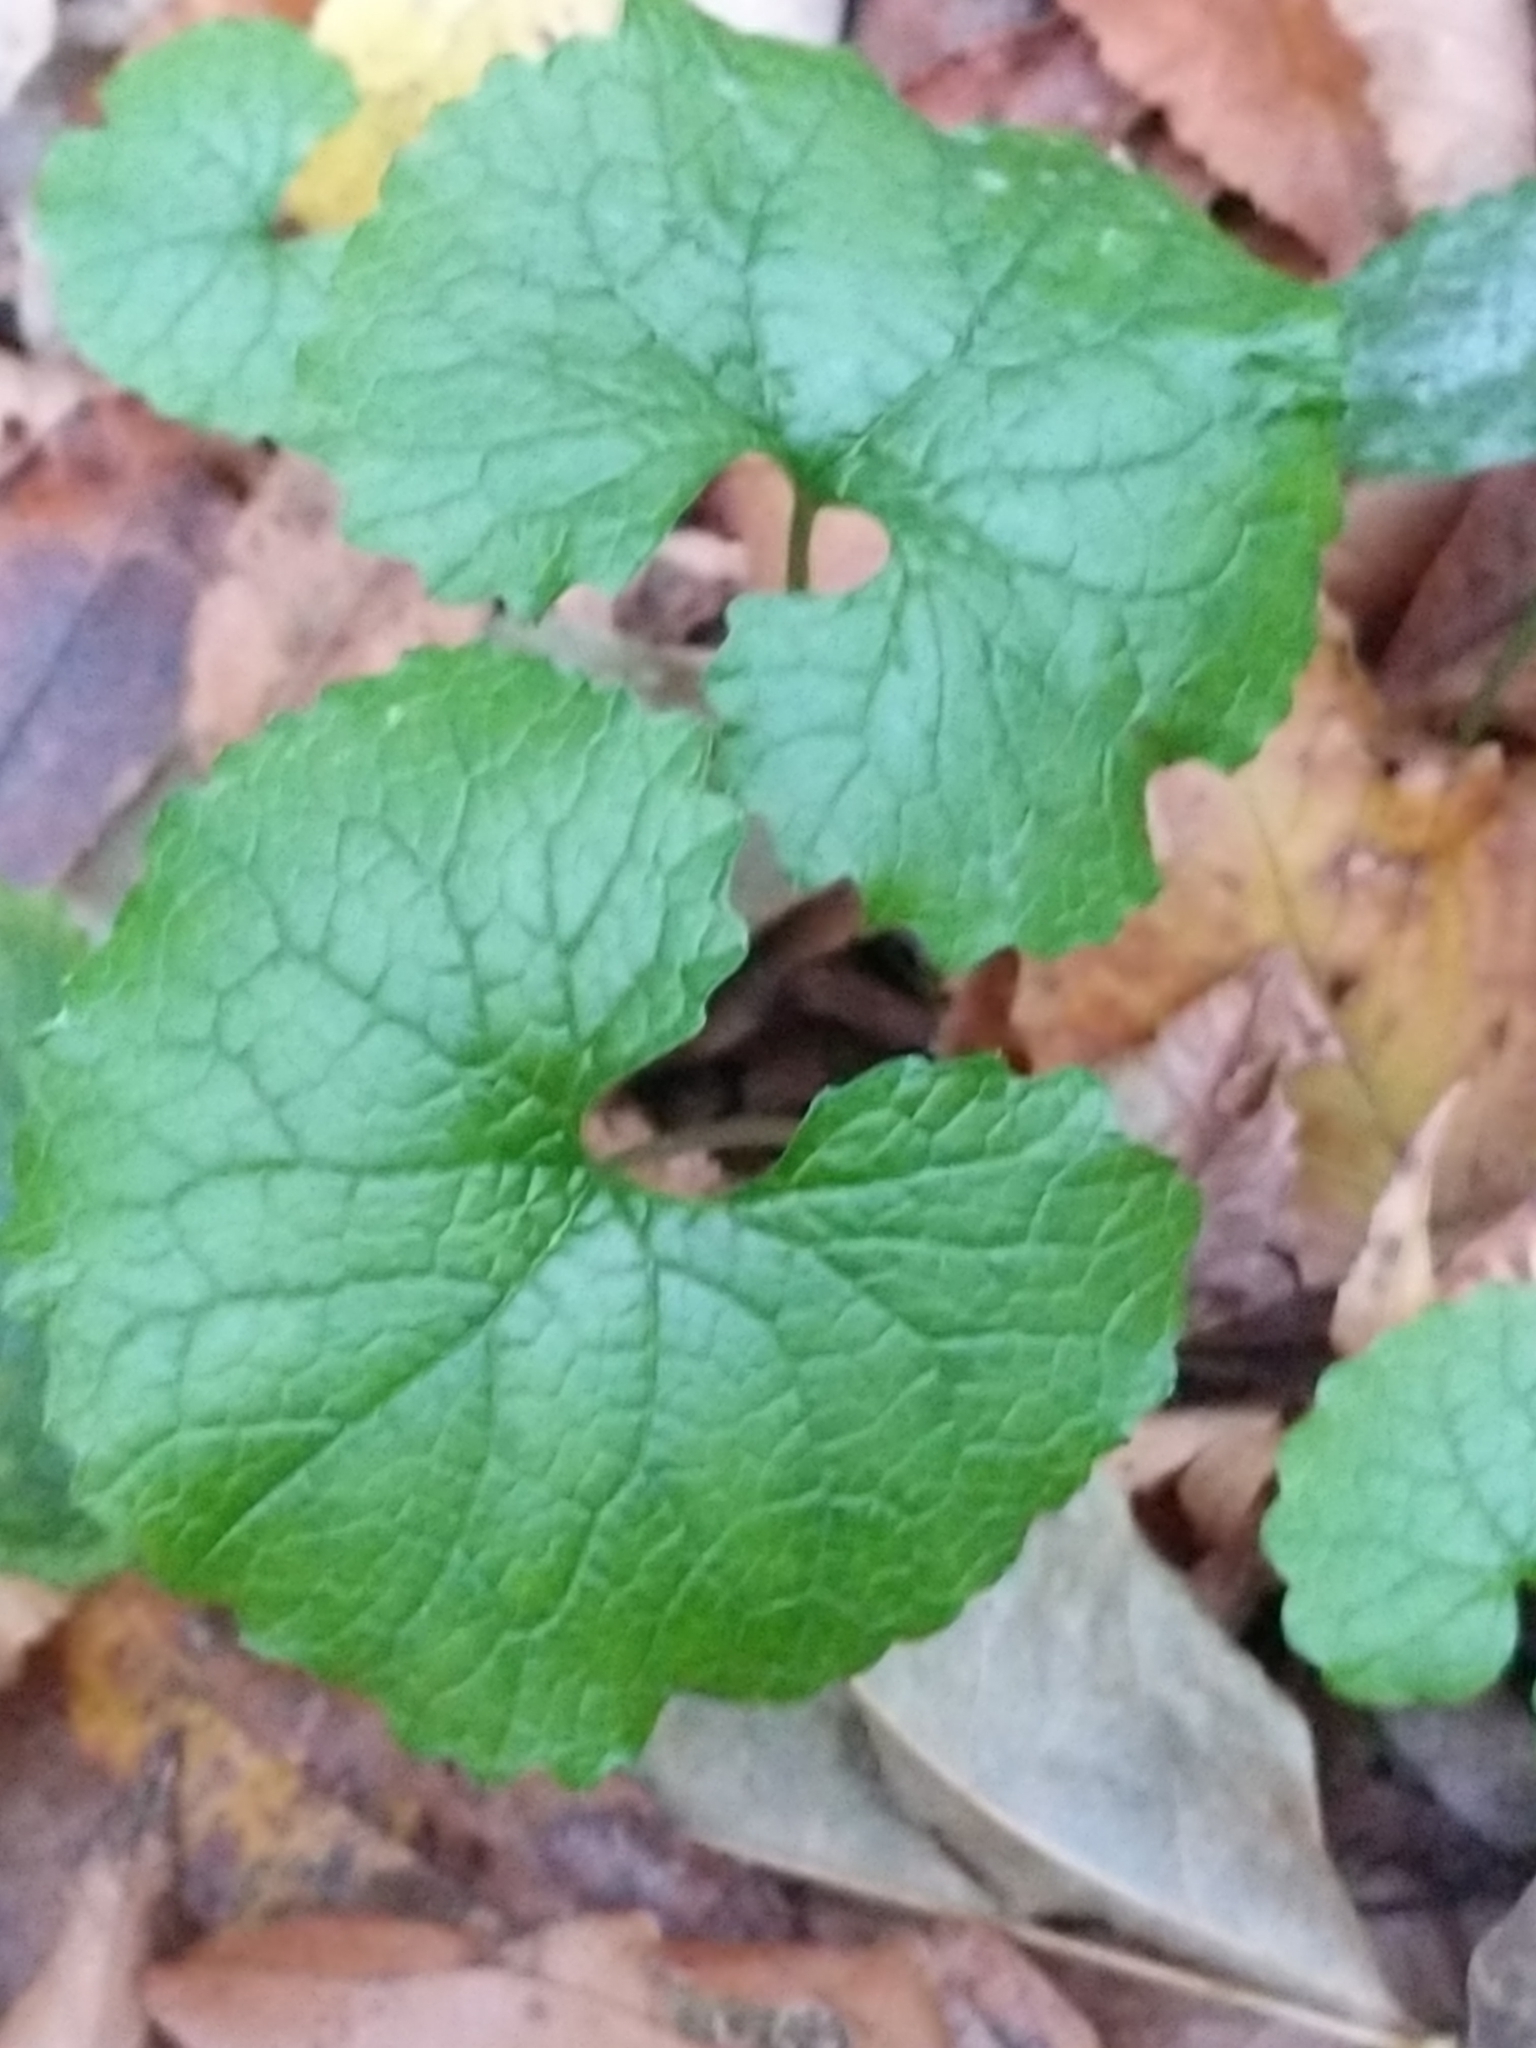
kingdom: Plantae
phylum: Tracheophyta
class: Magnoliopsida
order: Brassicales
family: Brassicaceae
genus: Alliaria
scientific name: Alliaria petiolata
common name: Garlic mustard
